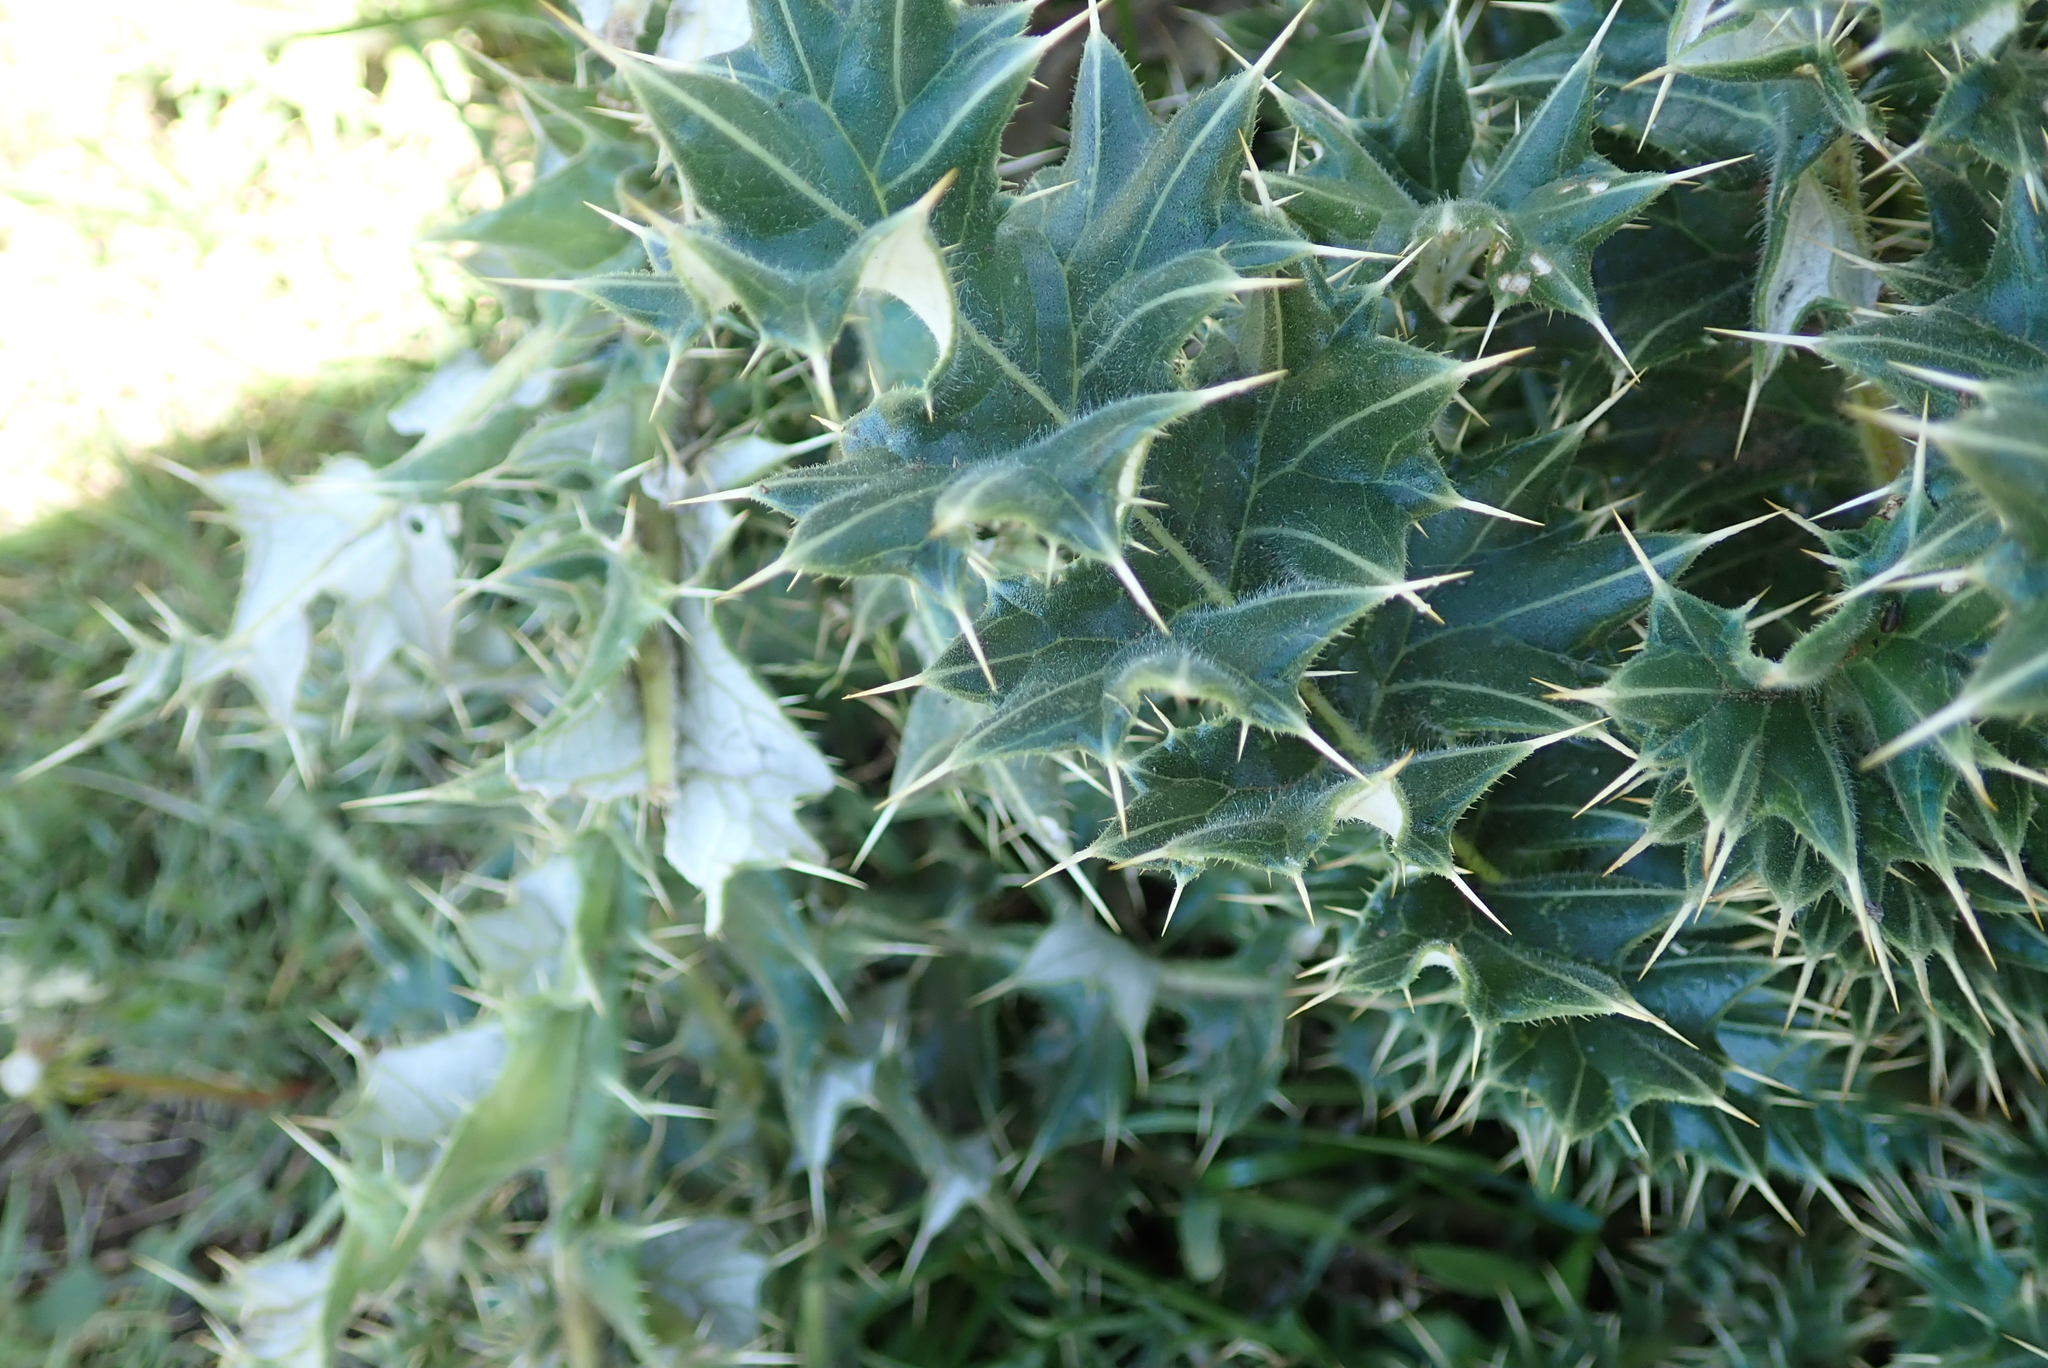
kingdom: Plantae
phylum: Tracheophyta
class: Magnoliopsida
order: Asterales
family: Asteraceae
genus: Berkheya
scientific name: Berkheya cirsiifolia
